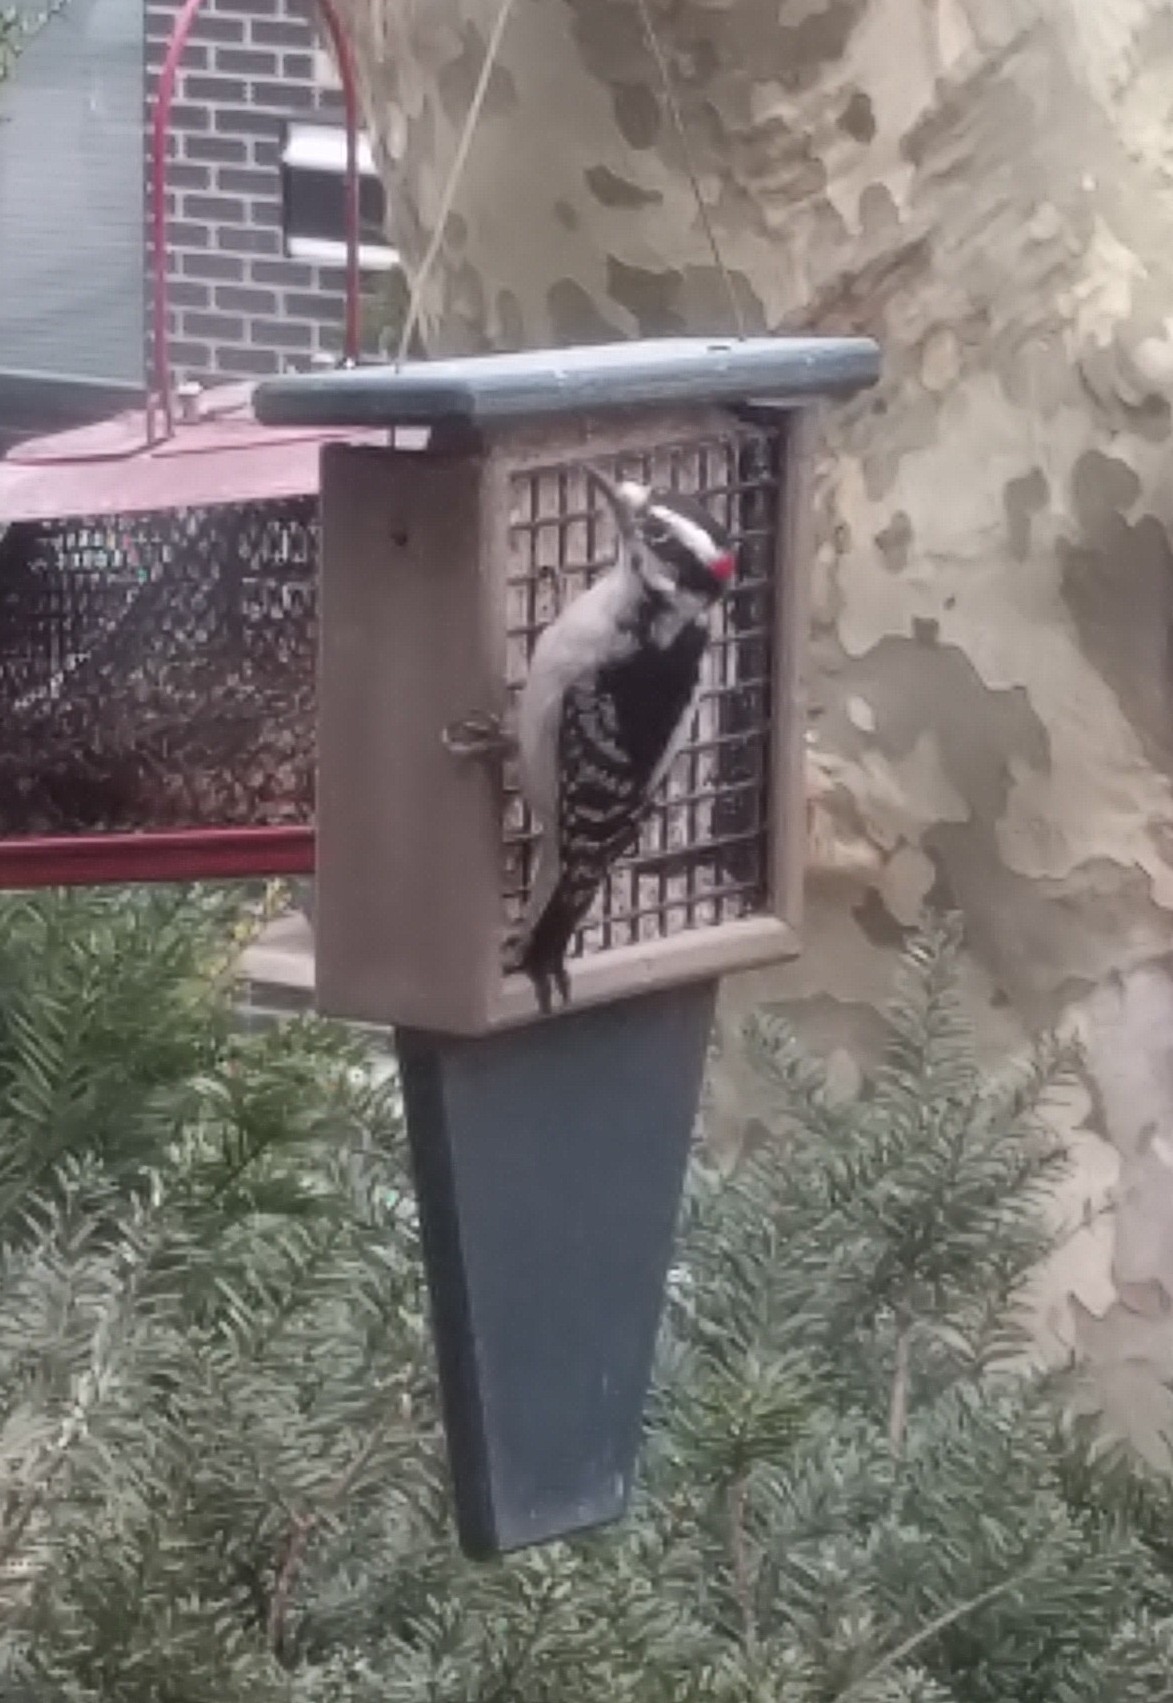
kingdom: Animalia
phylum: Chordata
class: Aves
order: Piciformes
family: Picidae
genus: Dryobates
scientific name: Dryobates pubescens
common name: Downy woodpecker
